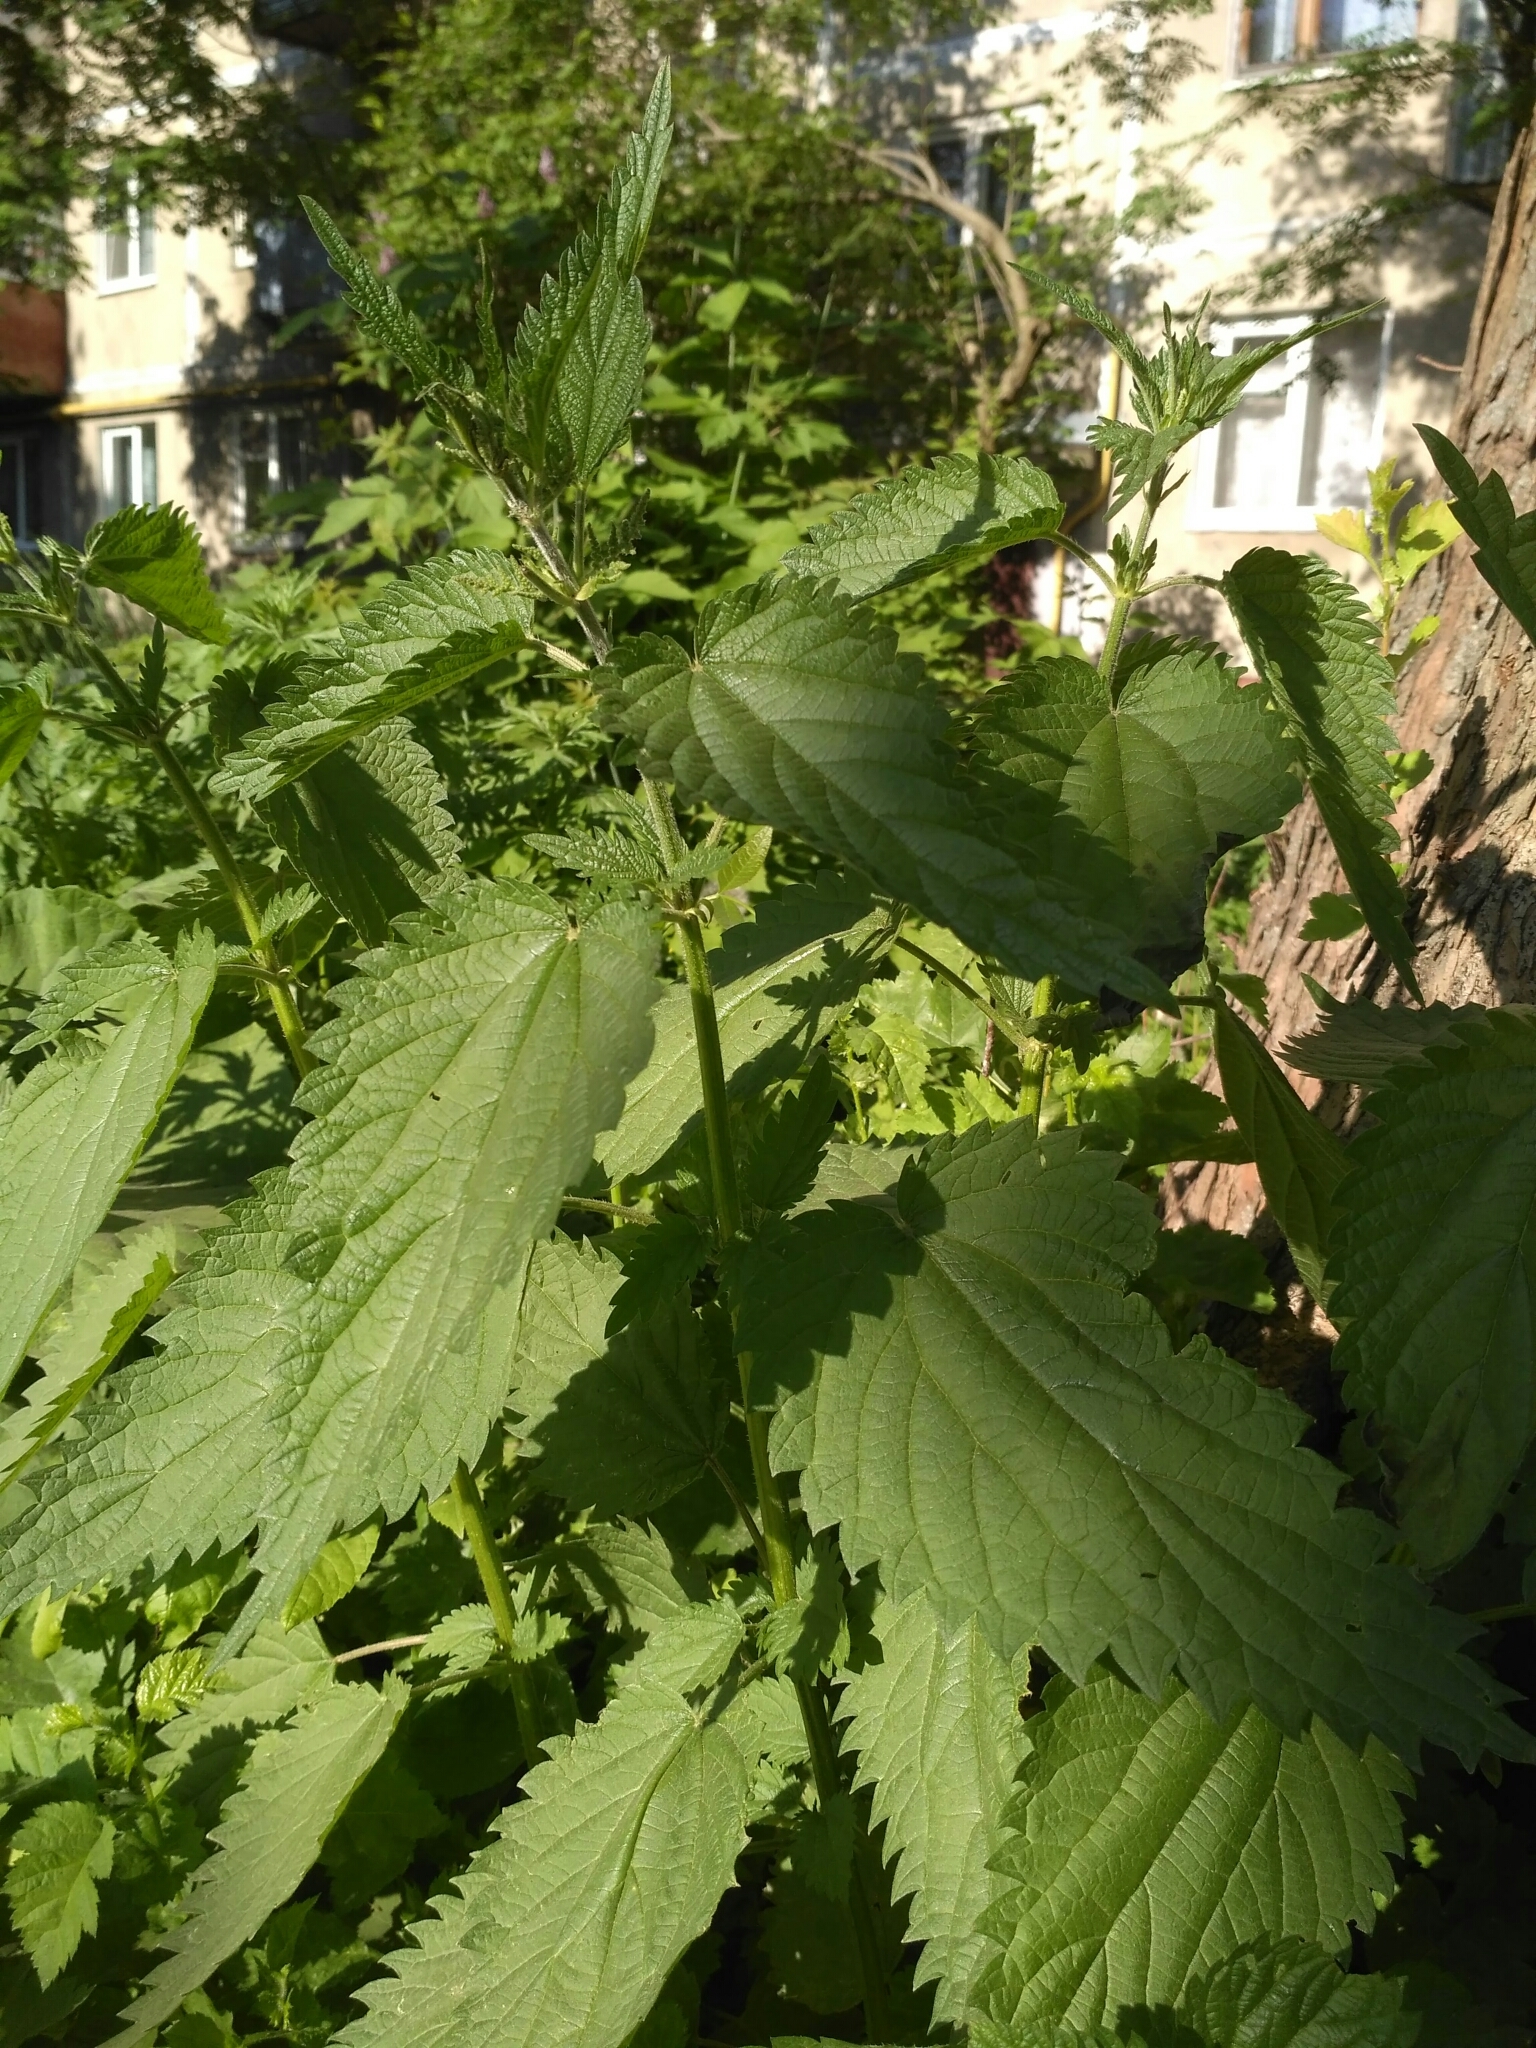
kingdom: Plantae
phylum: Tracheophyta
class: Magnoliopsida
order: Rosales
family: Urticaceae
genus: Urtica
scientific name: Urtica dioica
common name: Common nettle
